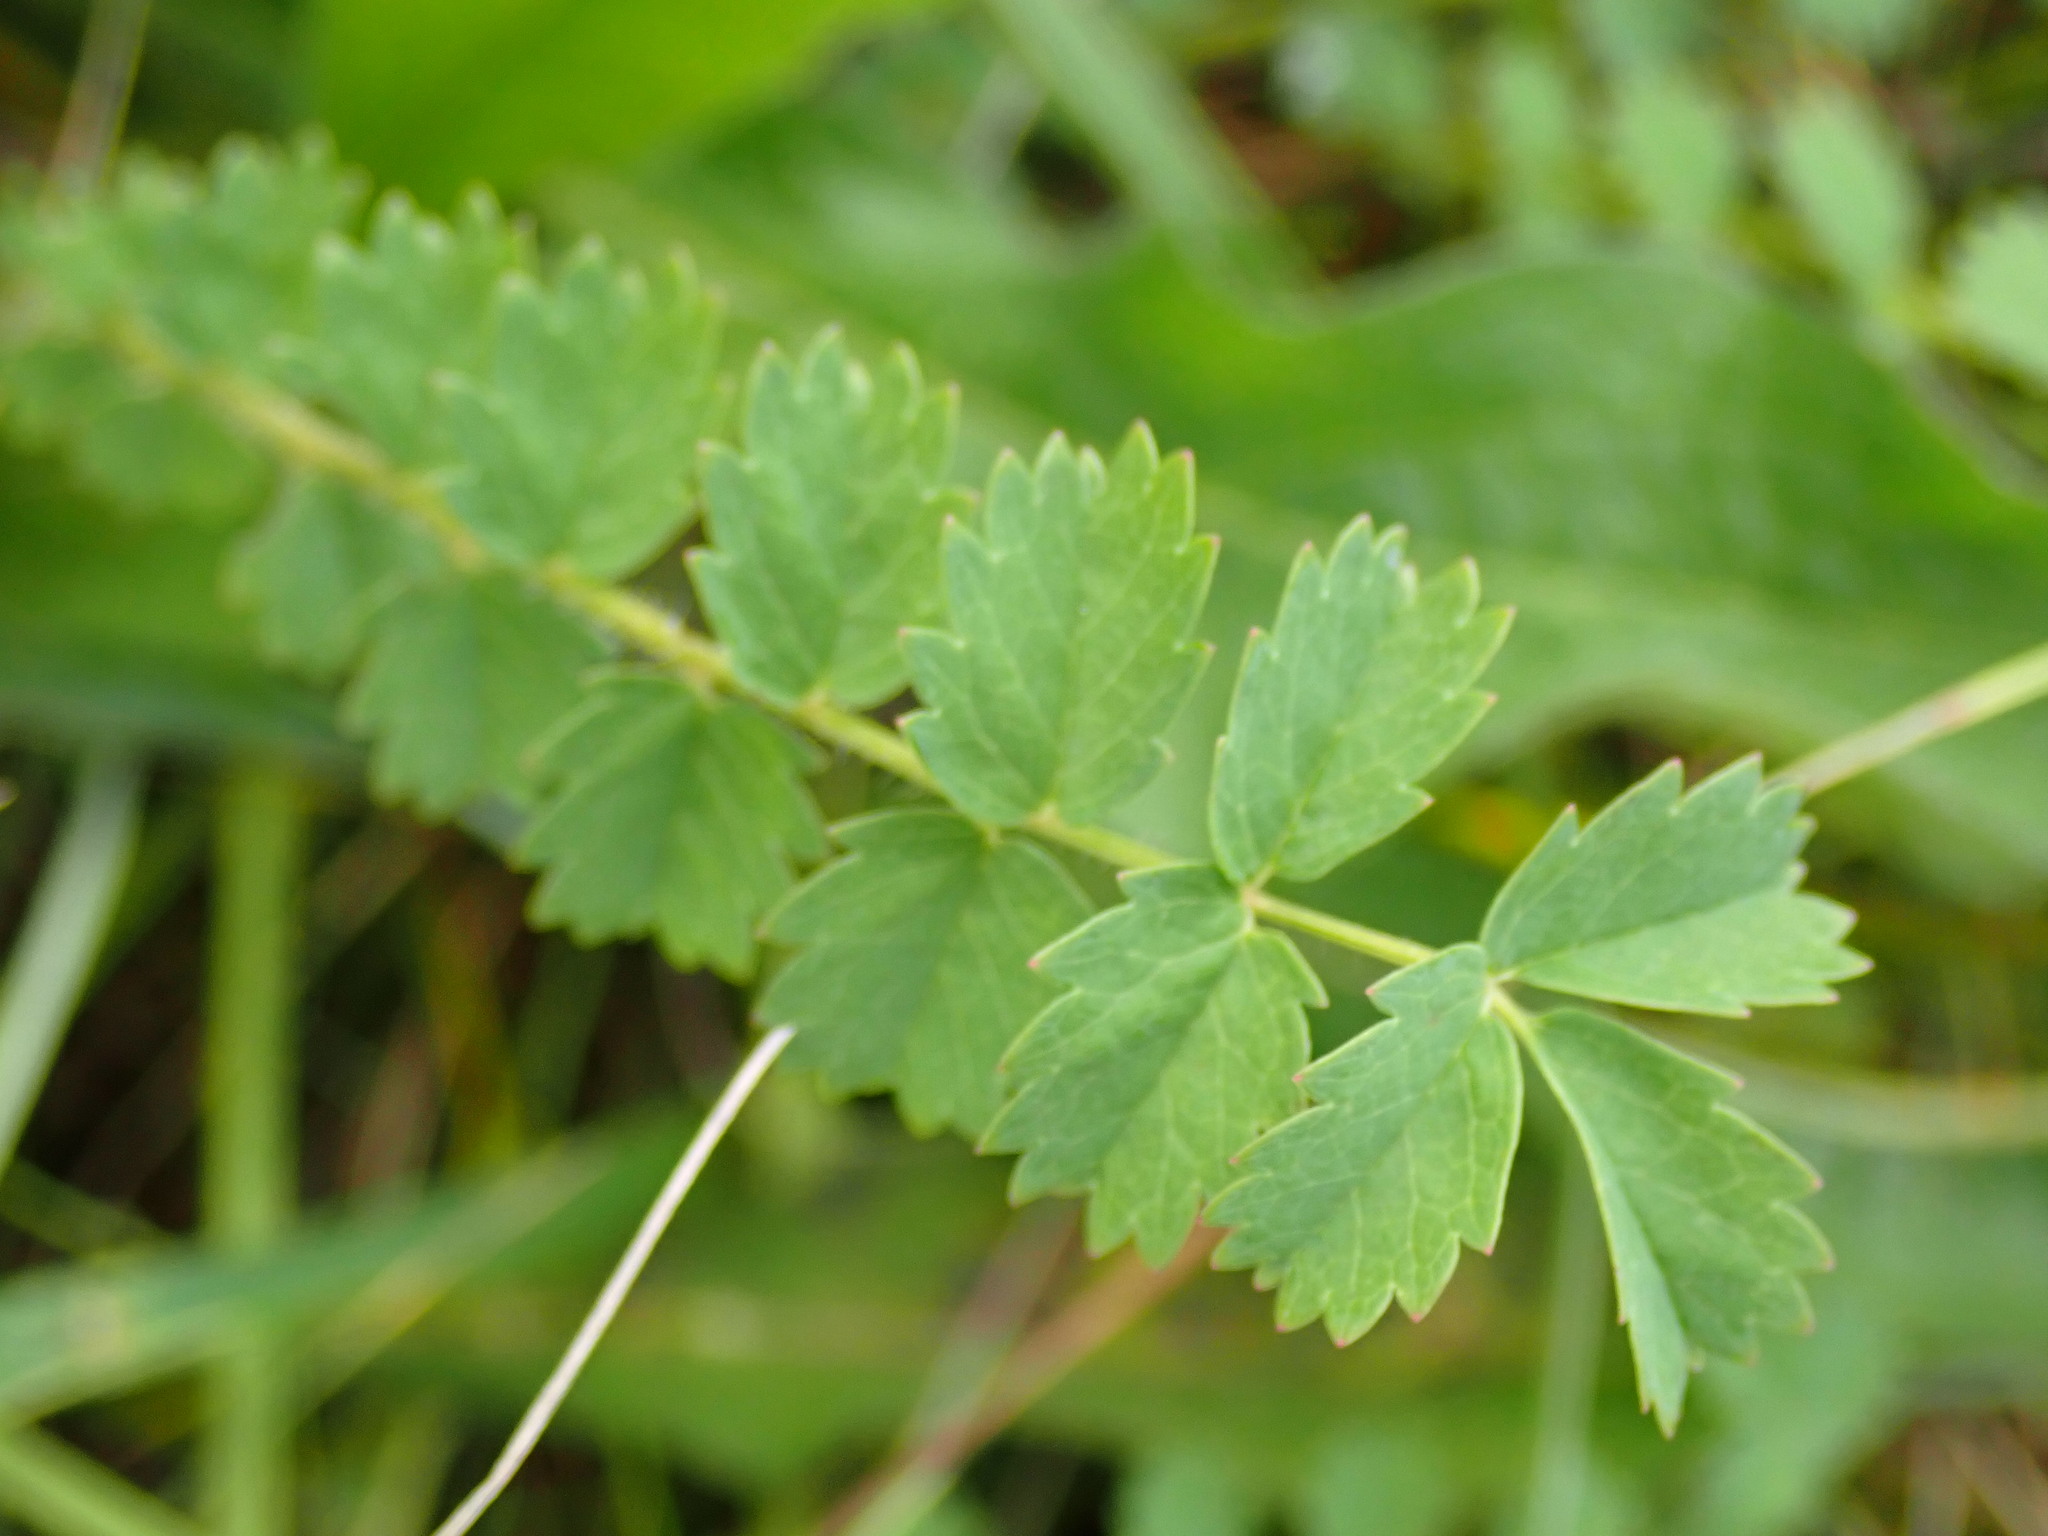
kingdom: Plantae
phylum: Tracheophyta
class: Magnoliopsida
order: Rosales
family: Rosaceae
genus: Poterium
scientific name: Poterium sanguisorba
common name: Salad burnet
